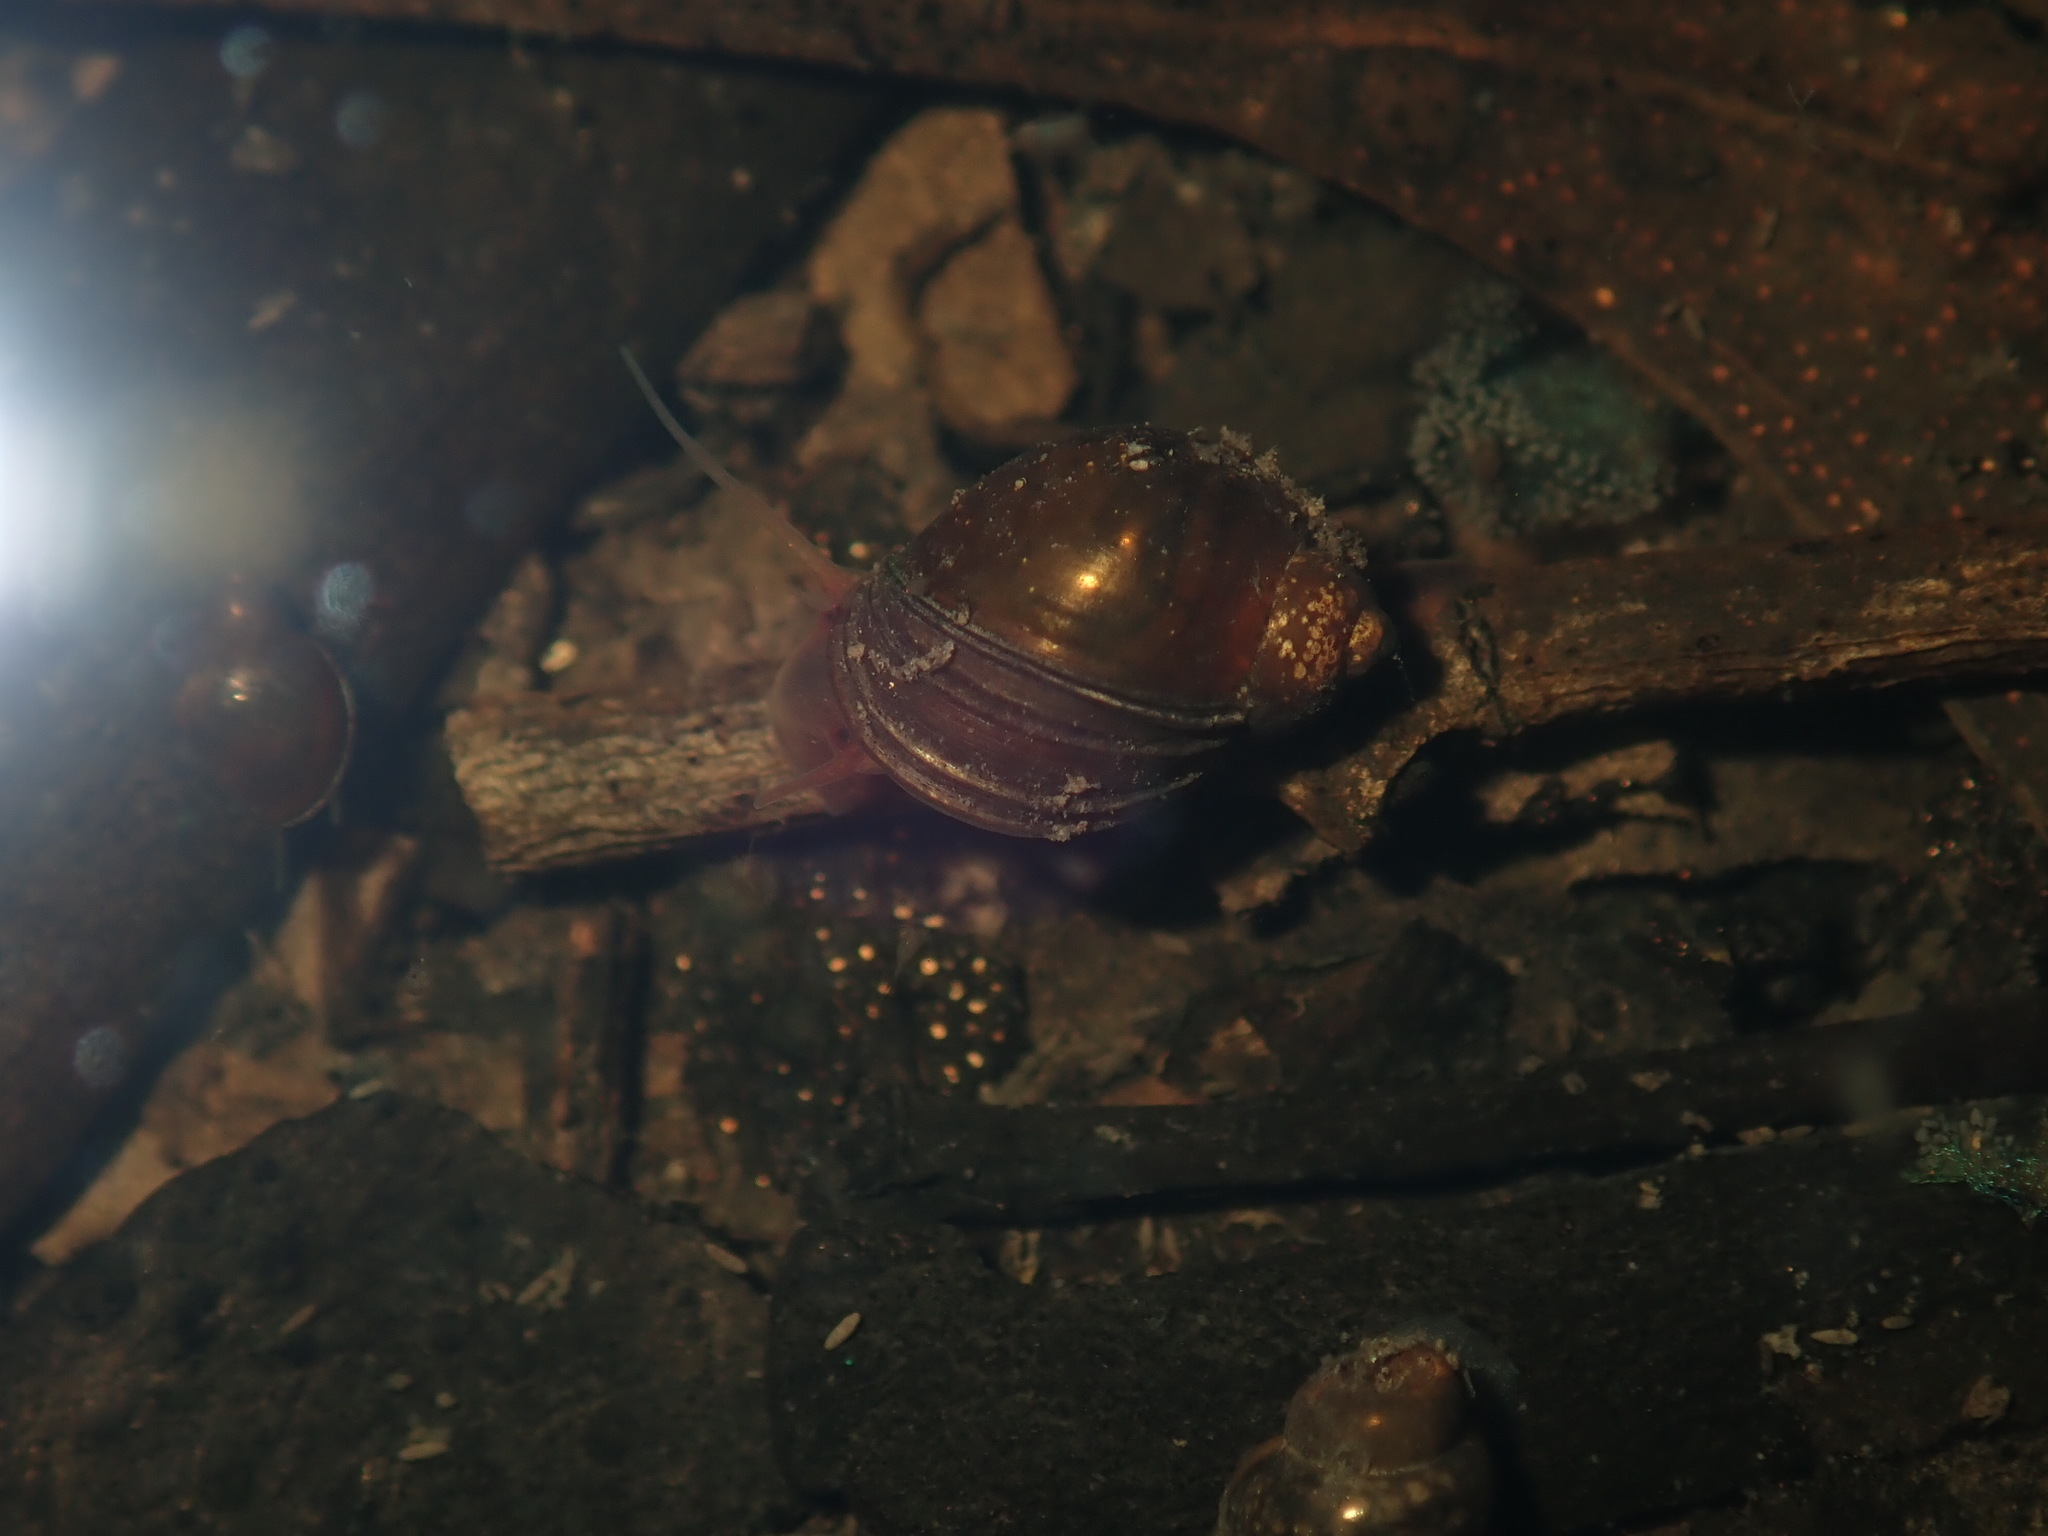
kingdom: Animalia
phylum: Mollusca
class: Gastropoda
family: Planorbidae
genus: Isidorella
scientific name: Isidorella hainesii
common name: Haine’s pouch snail
